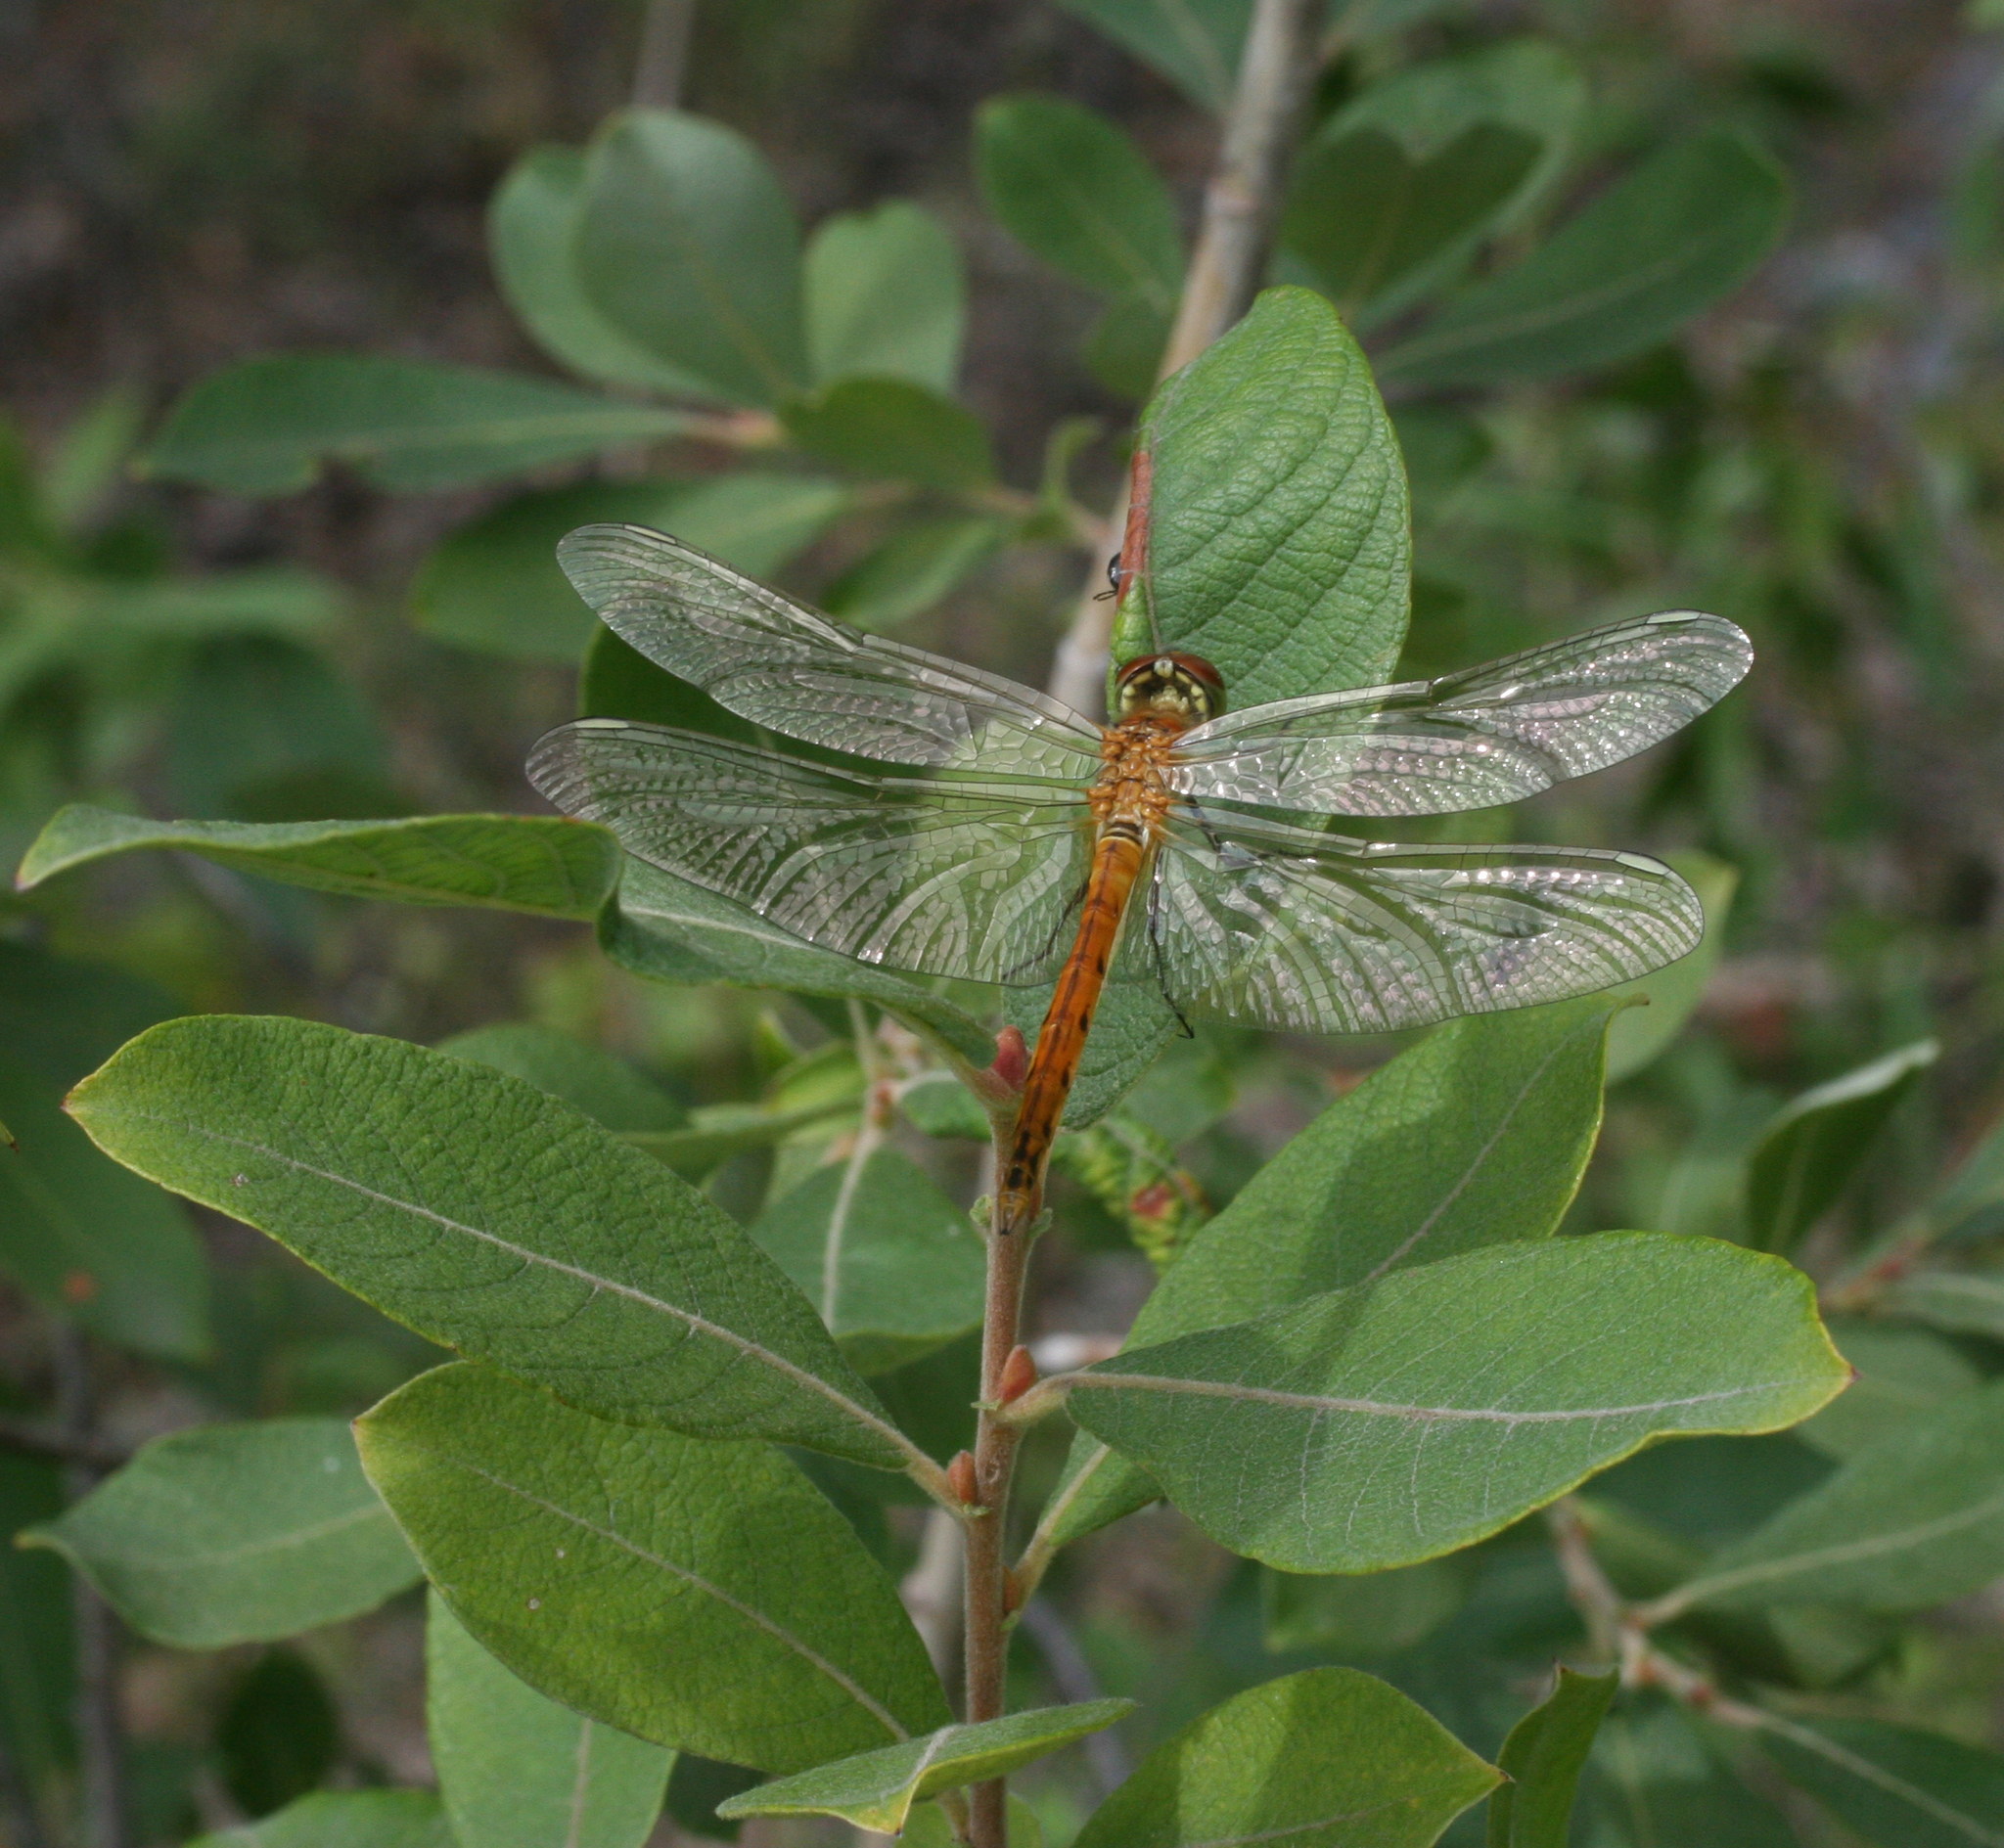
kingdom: Animalia
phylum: Arthropoda
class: Insecta
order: Odonata
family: Libellulidae
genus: Sympetrum
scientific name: Sympetrum depressiusculum
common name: Spotted darter
